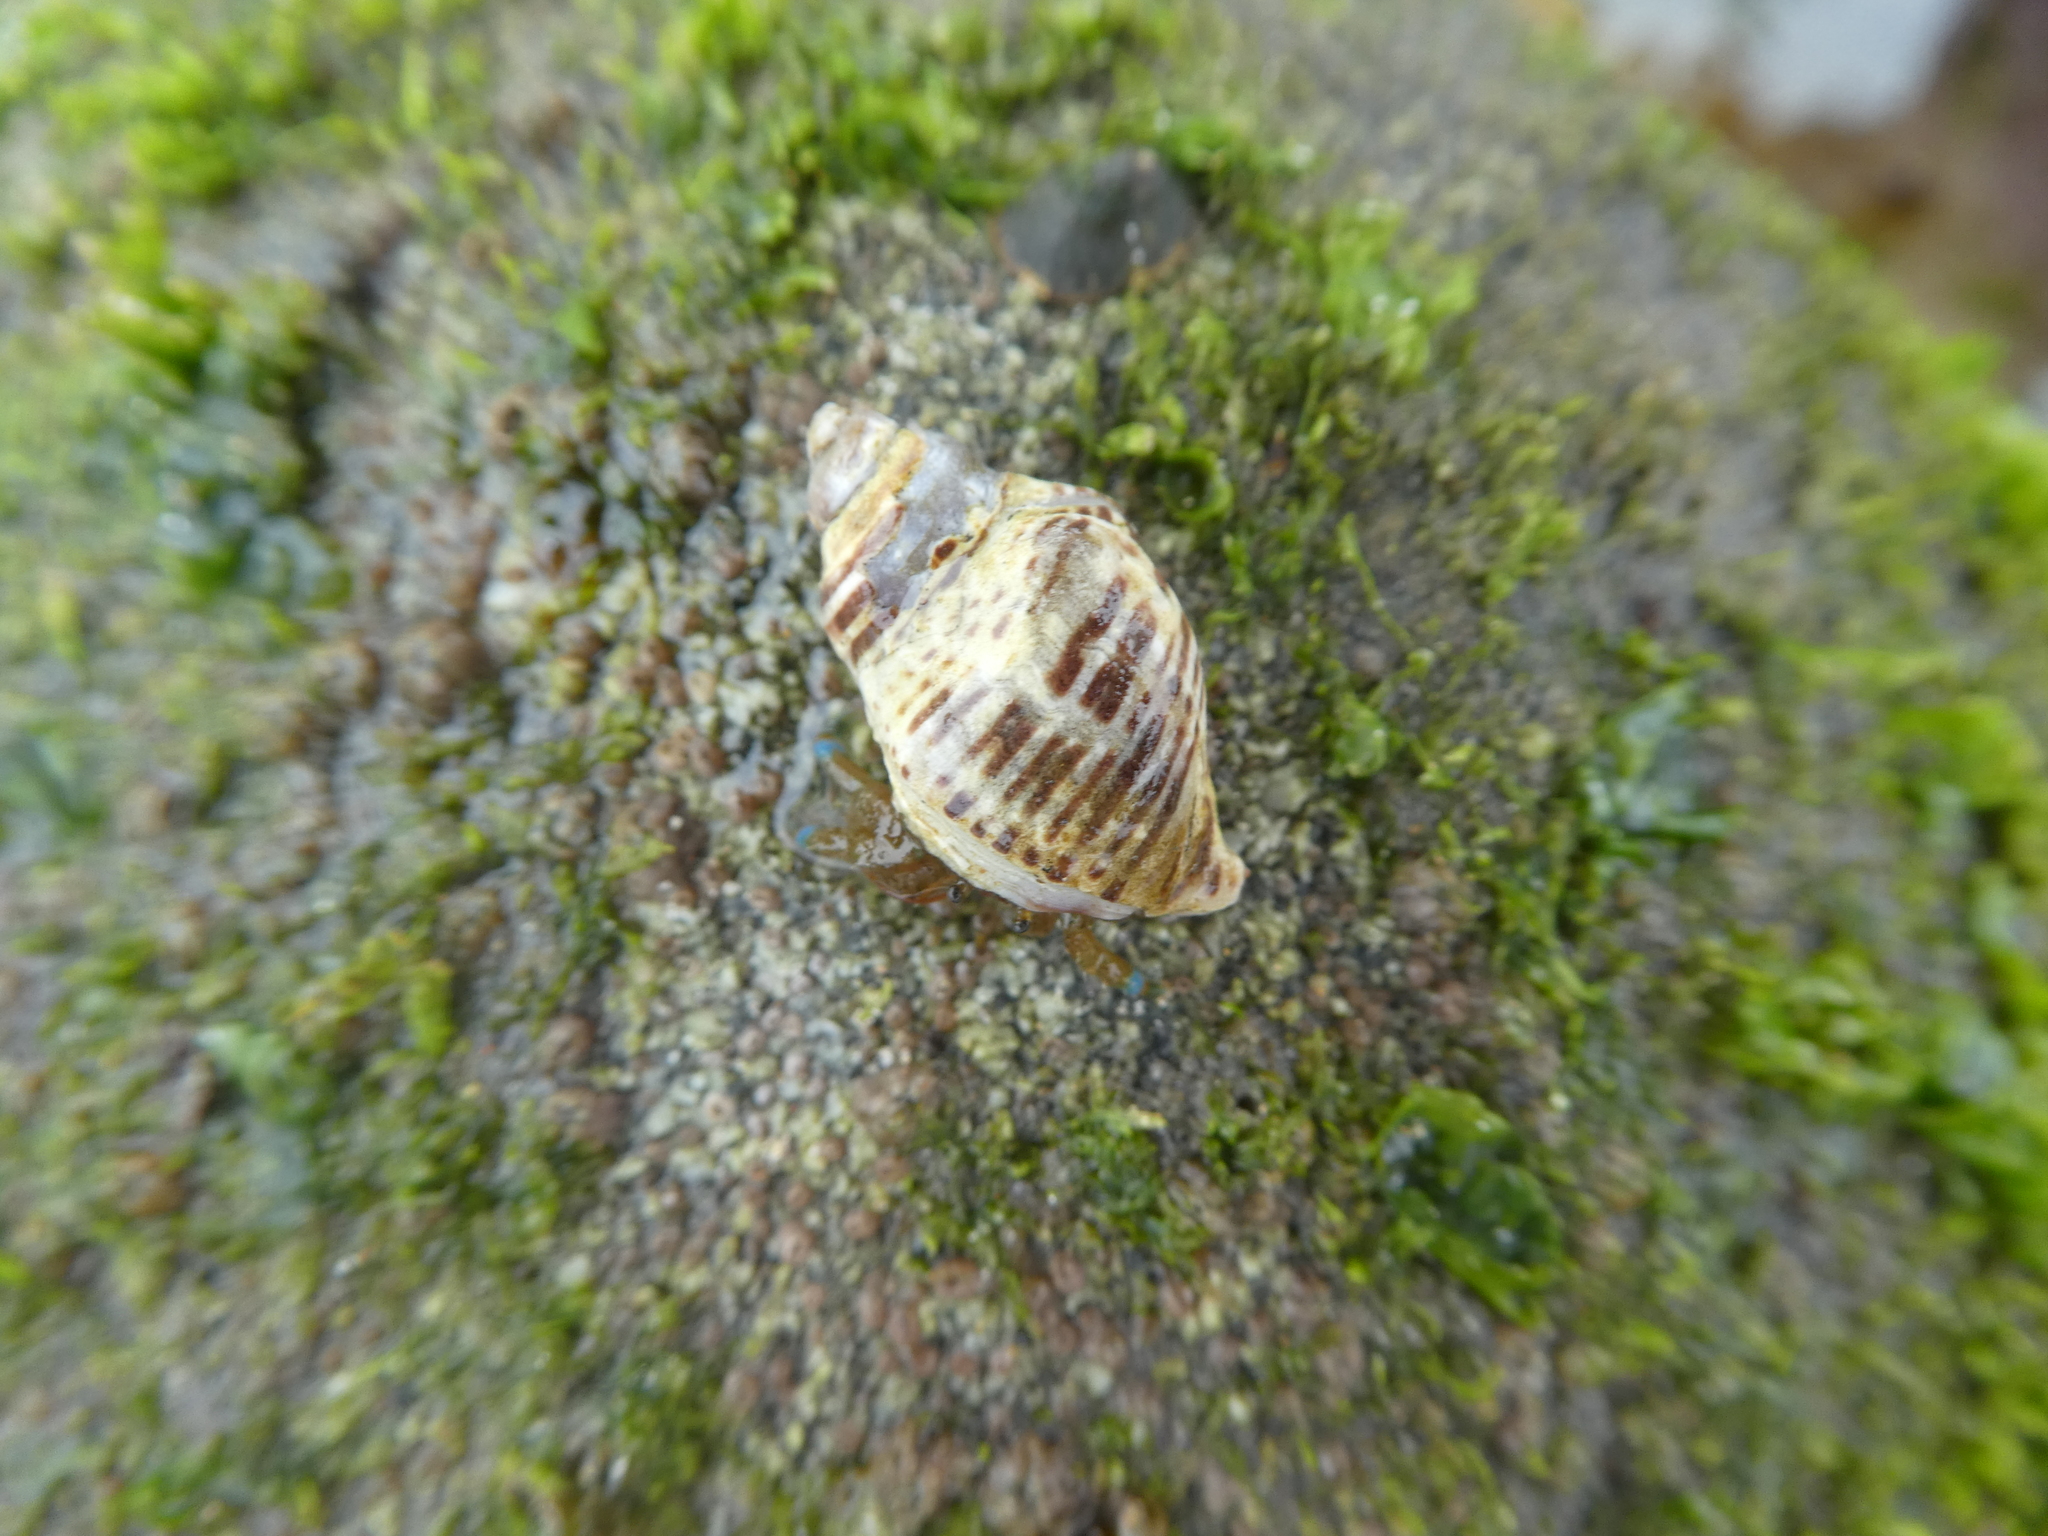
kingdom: Animalia
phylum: Mollusca
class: Gastropoda
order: Neogastropoda
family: Muricidae
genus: Acanthinucella
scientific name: Acanthinucella spirata
